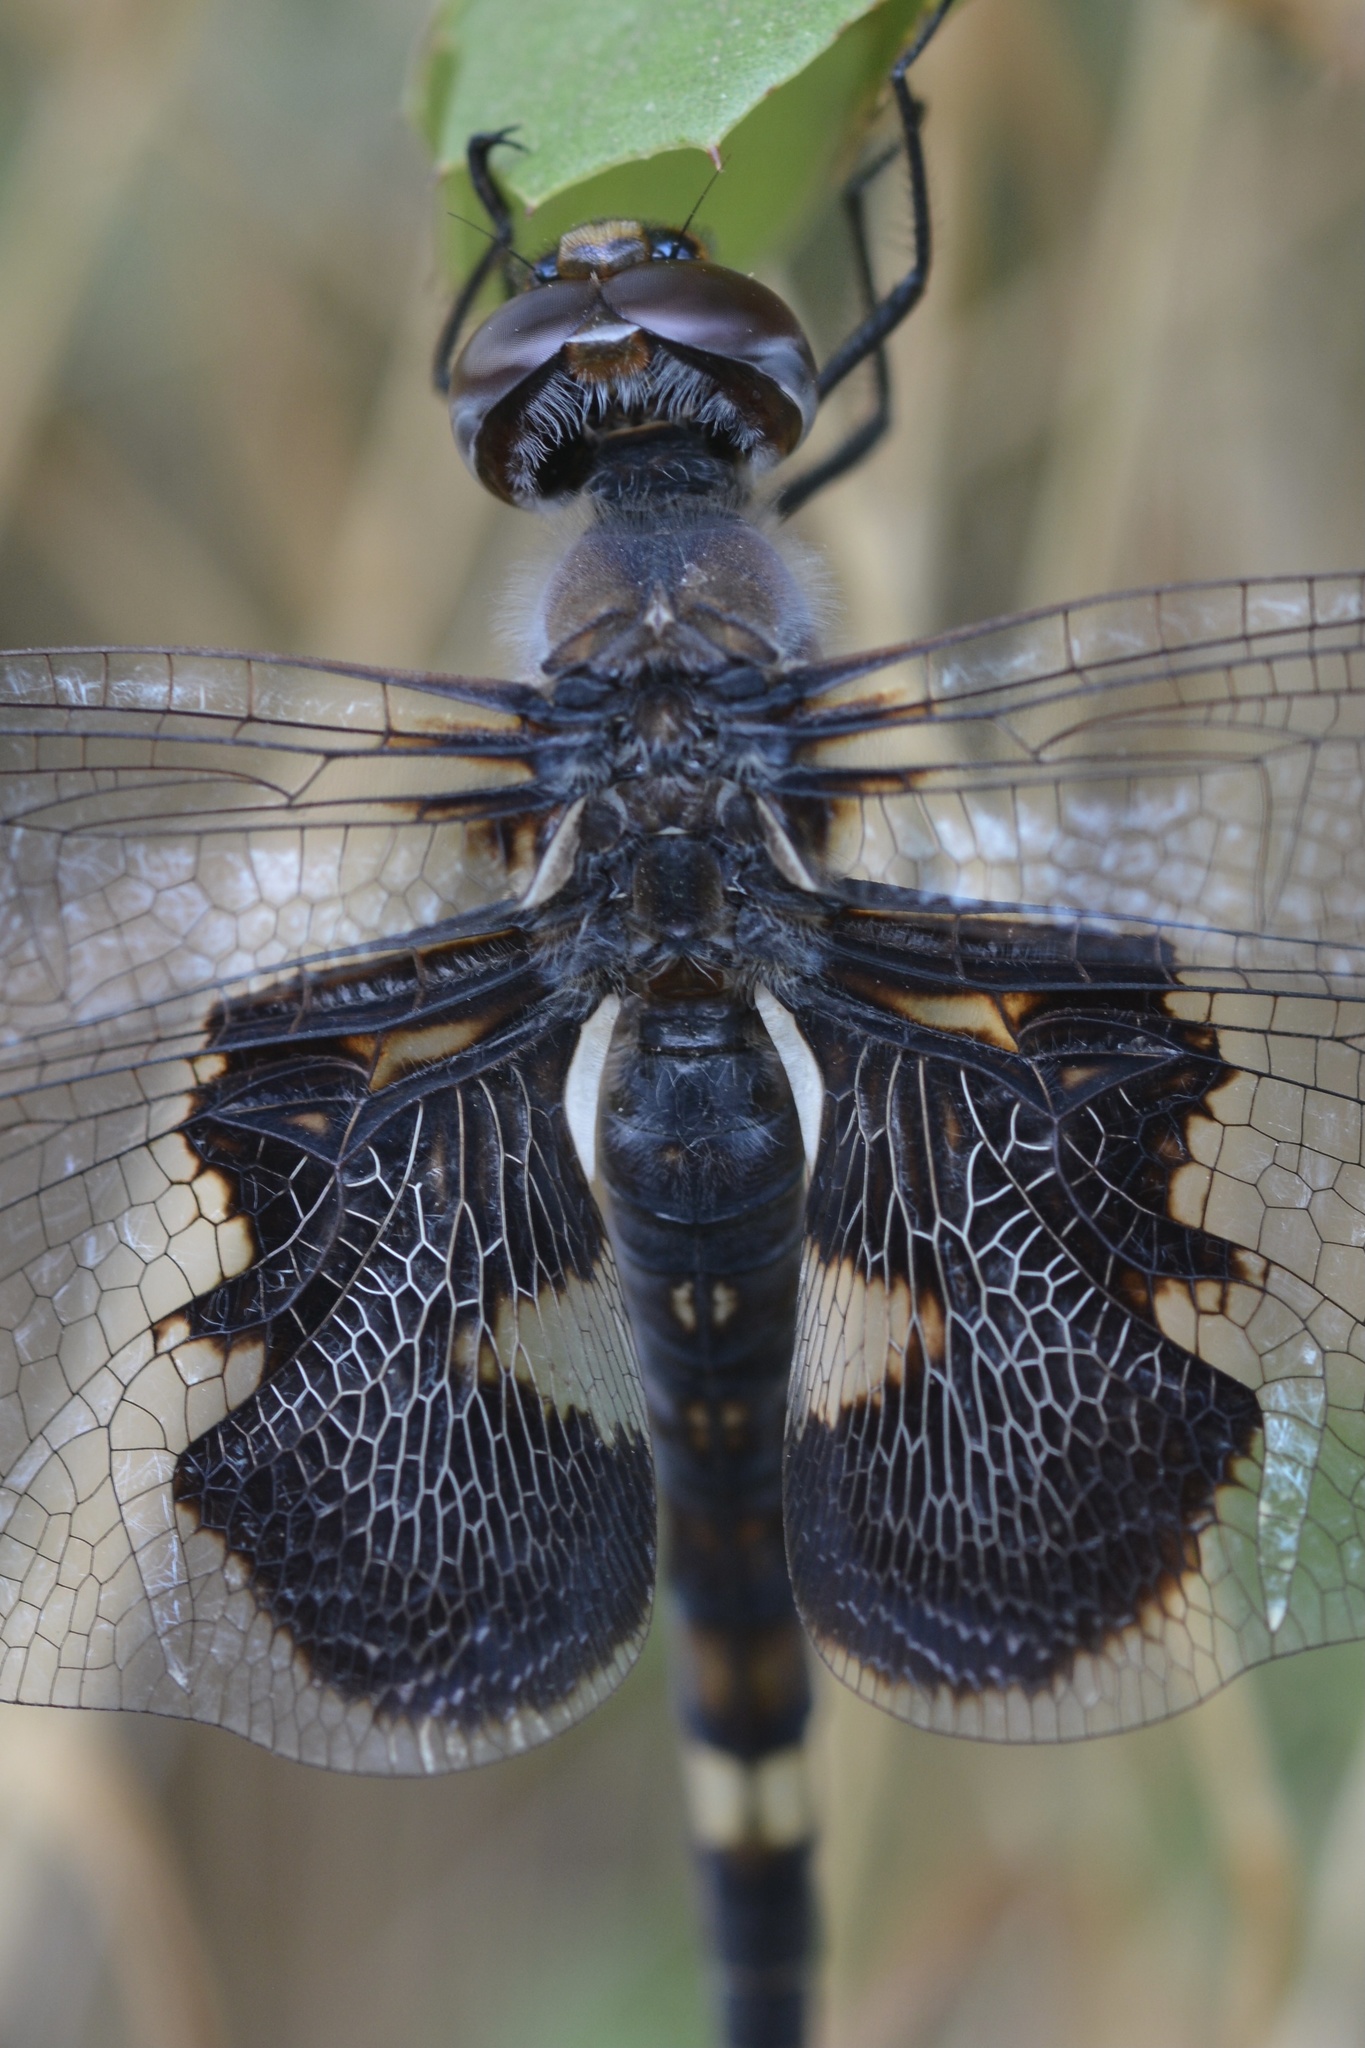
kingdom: Animalia
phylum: Arthropoda
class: Insecta
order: Odonata
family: Libellulidae
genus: Tramea
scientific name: Tramea lacerata
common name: Black saddlebags
